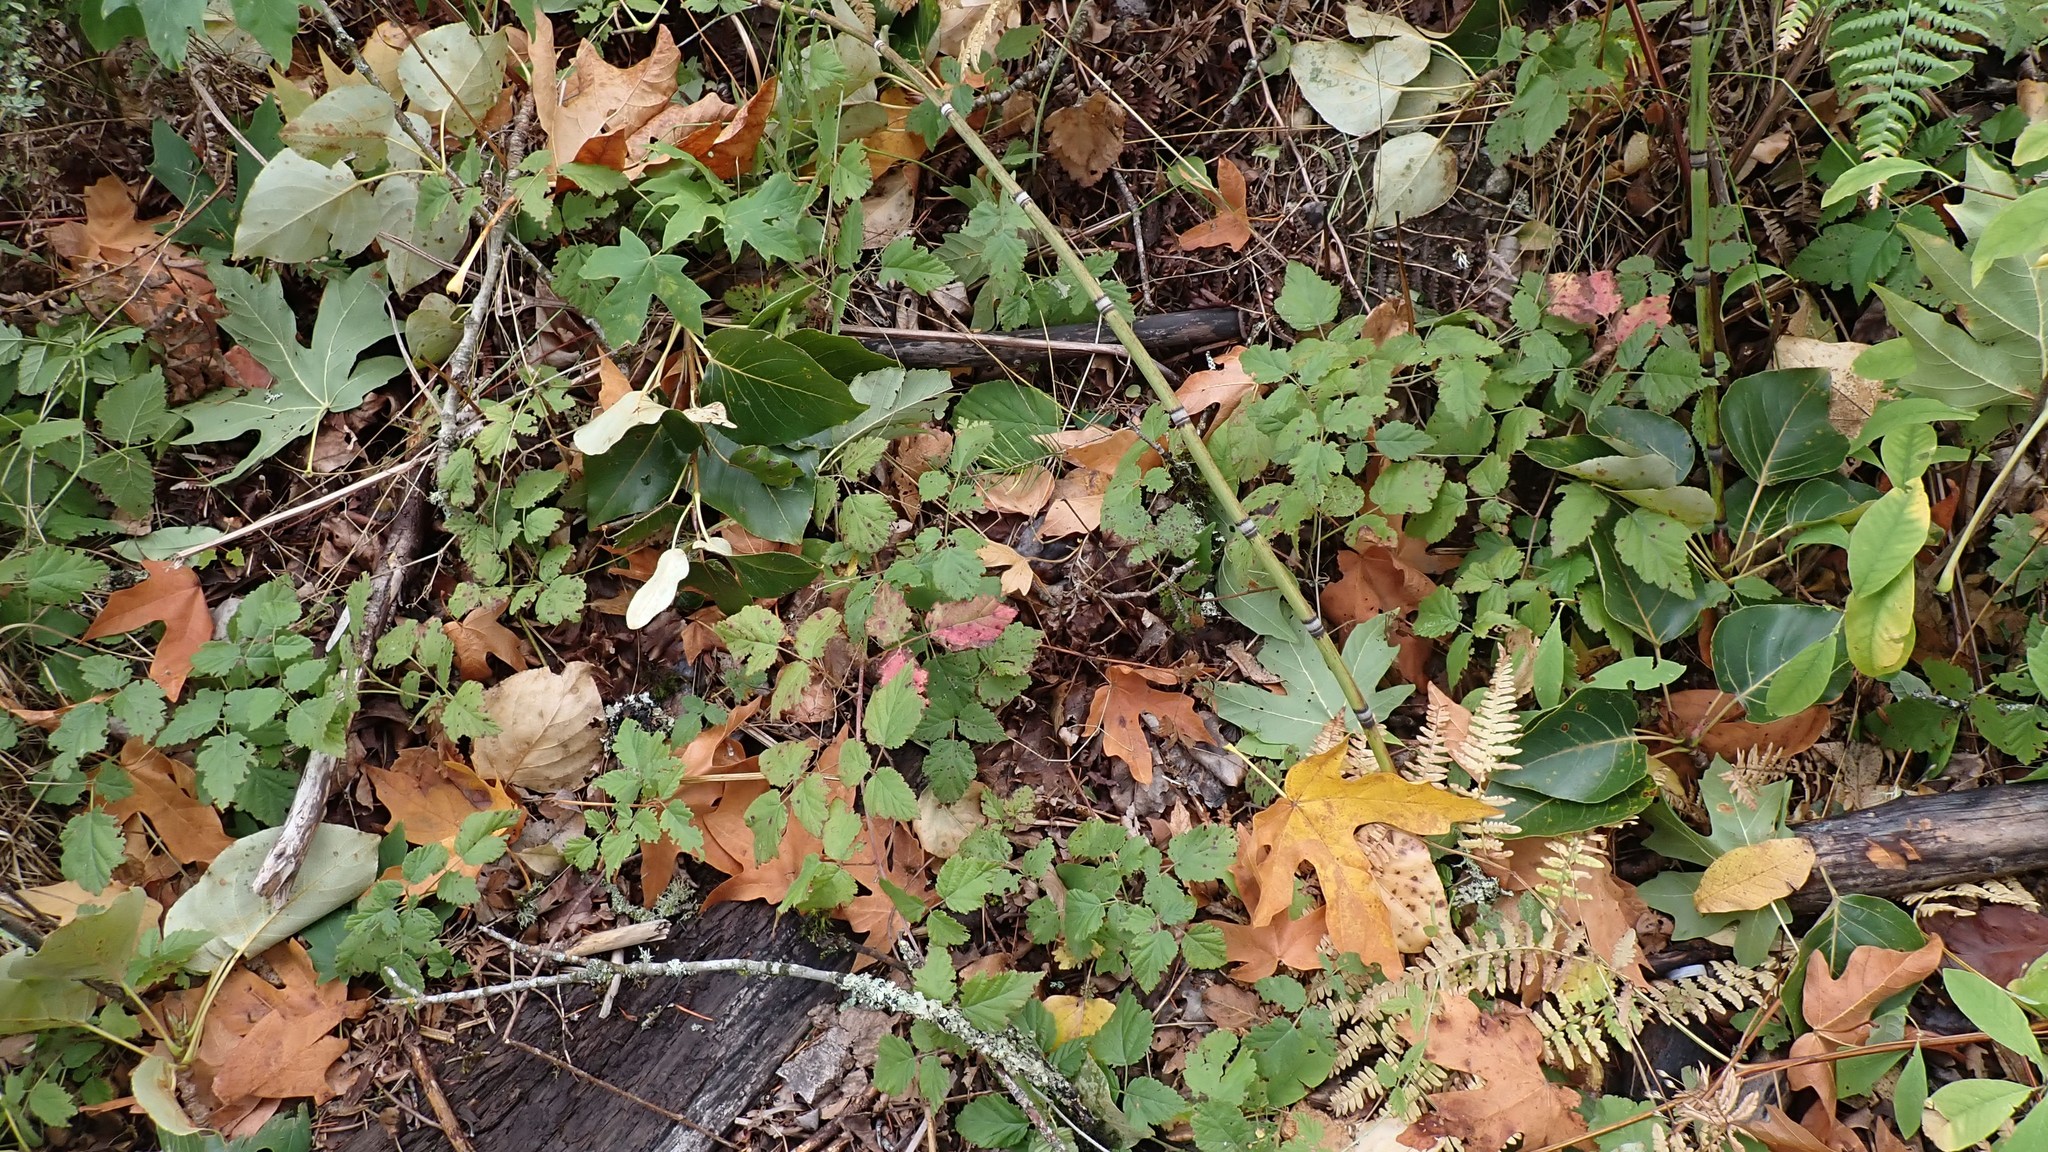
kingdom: Plantae
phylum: Tracheophyta
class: Magnoliopsida
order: Rosales
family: Rosaceae
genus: Rubus
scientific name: Rubus ursinus
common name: Pacific blackberry
